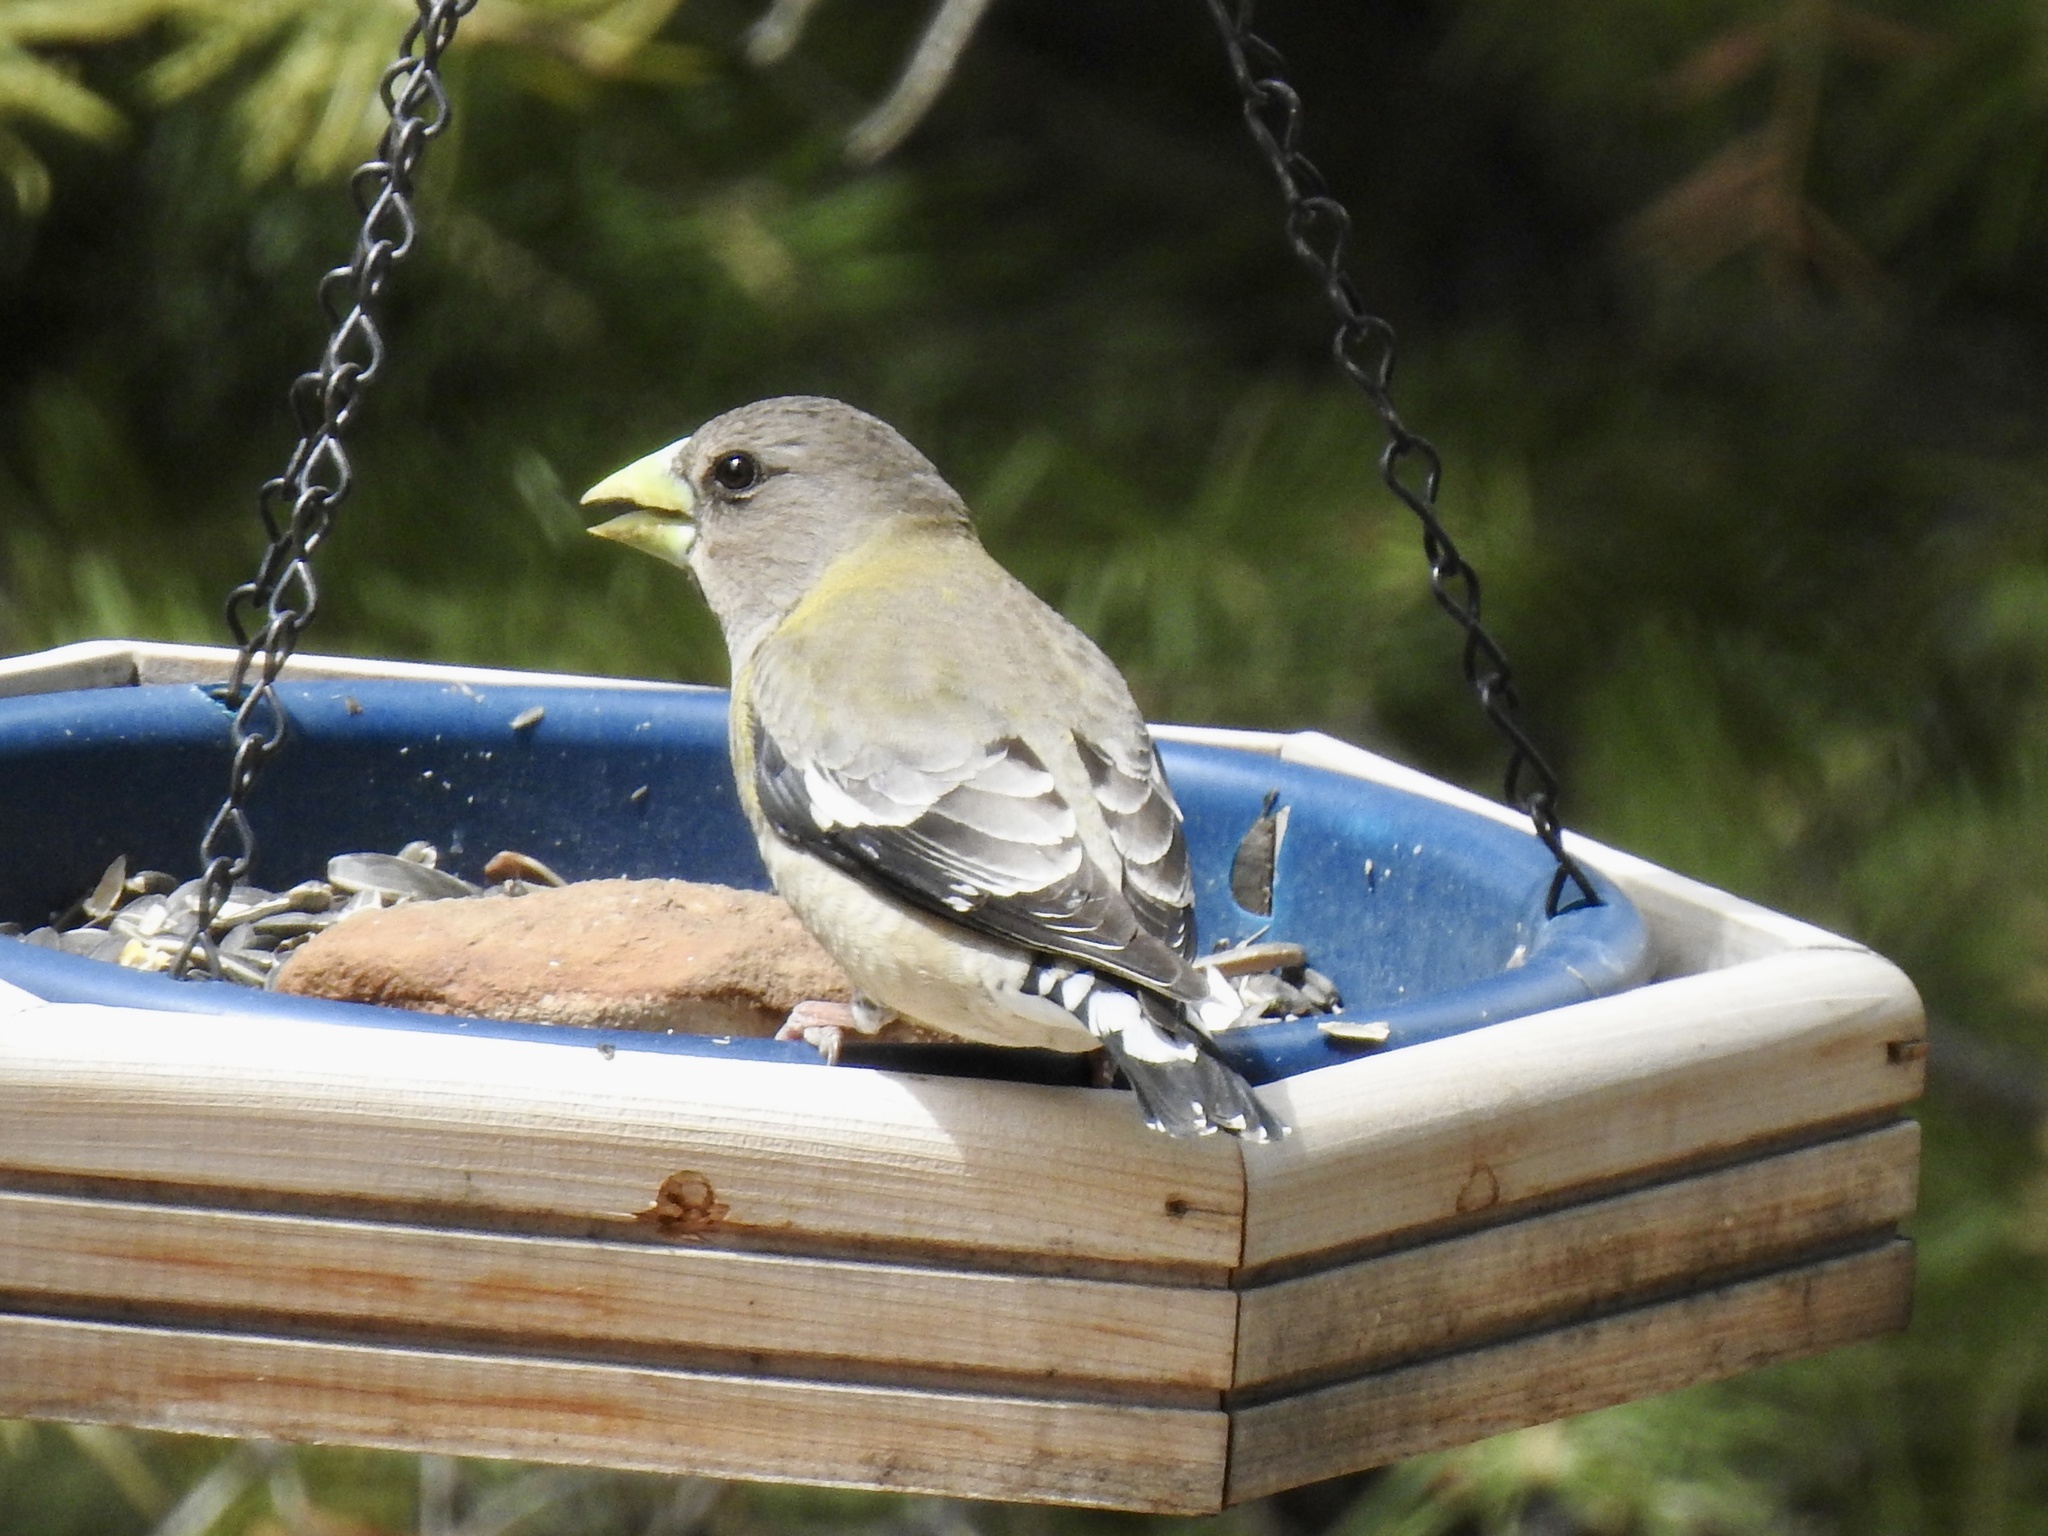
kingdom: Animalia
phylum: Chordata
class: Aves
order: Passeriformes
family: Fringillidae
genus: Hesperiphona
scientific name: Hesperiphona vespertina
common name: Evening grosbeak
